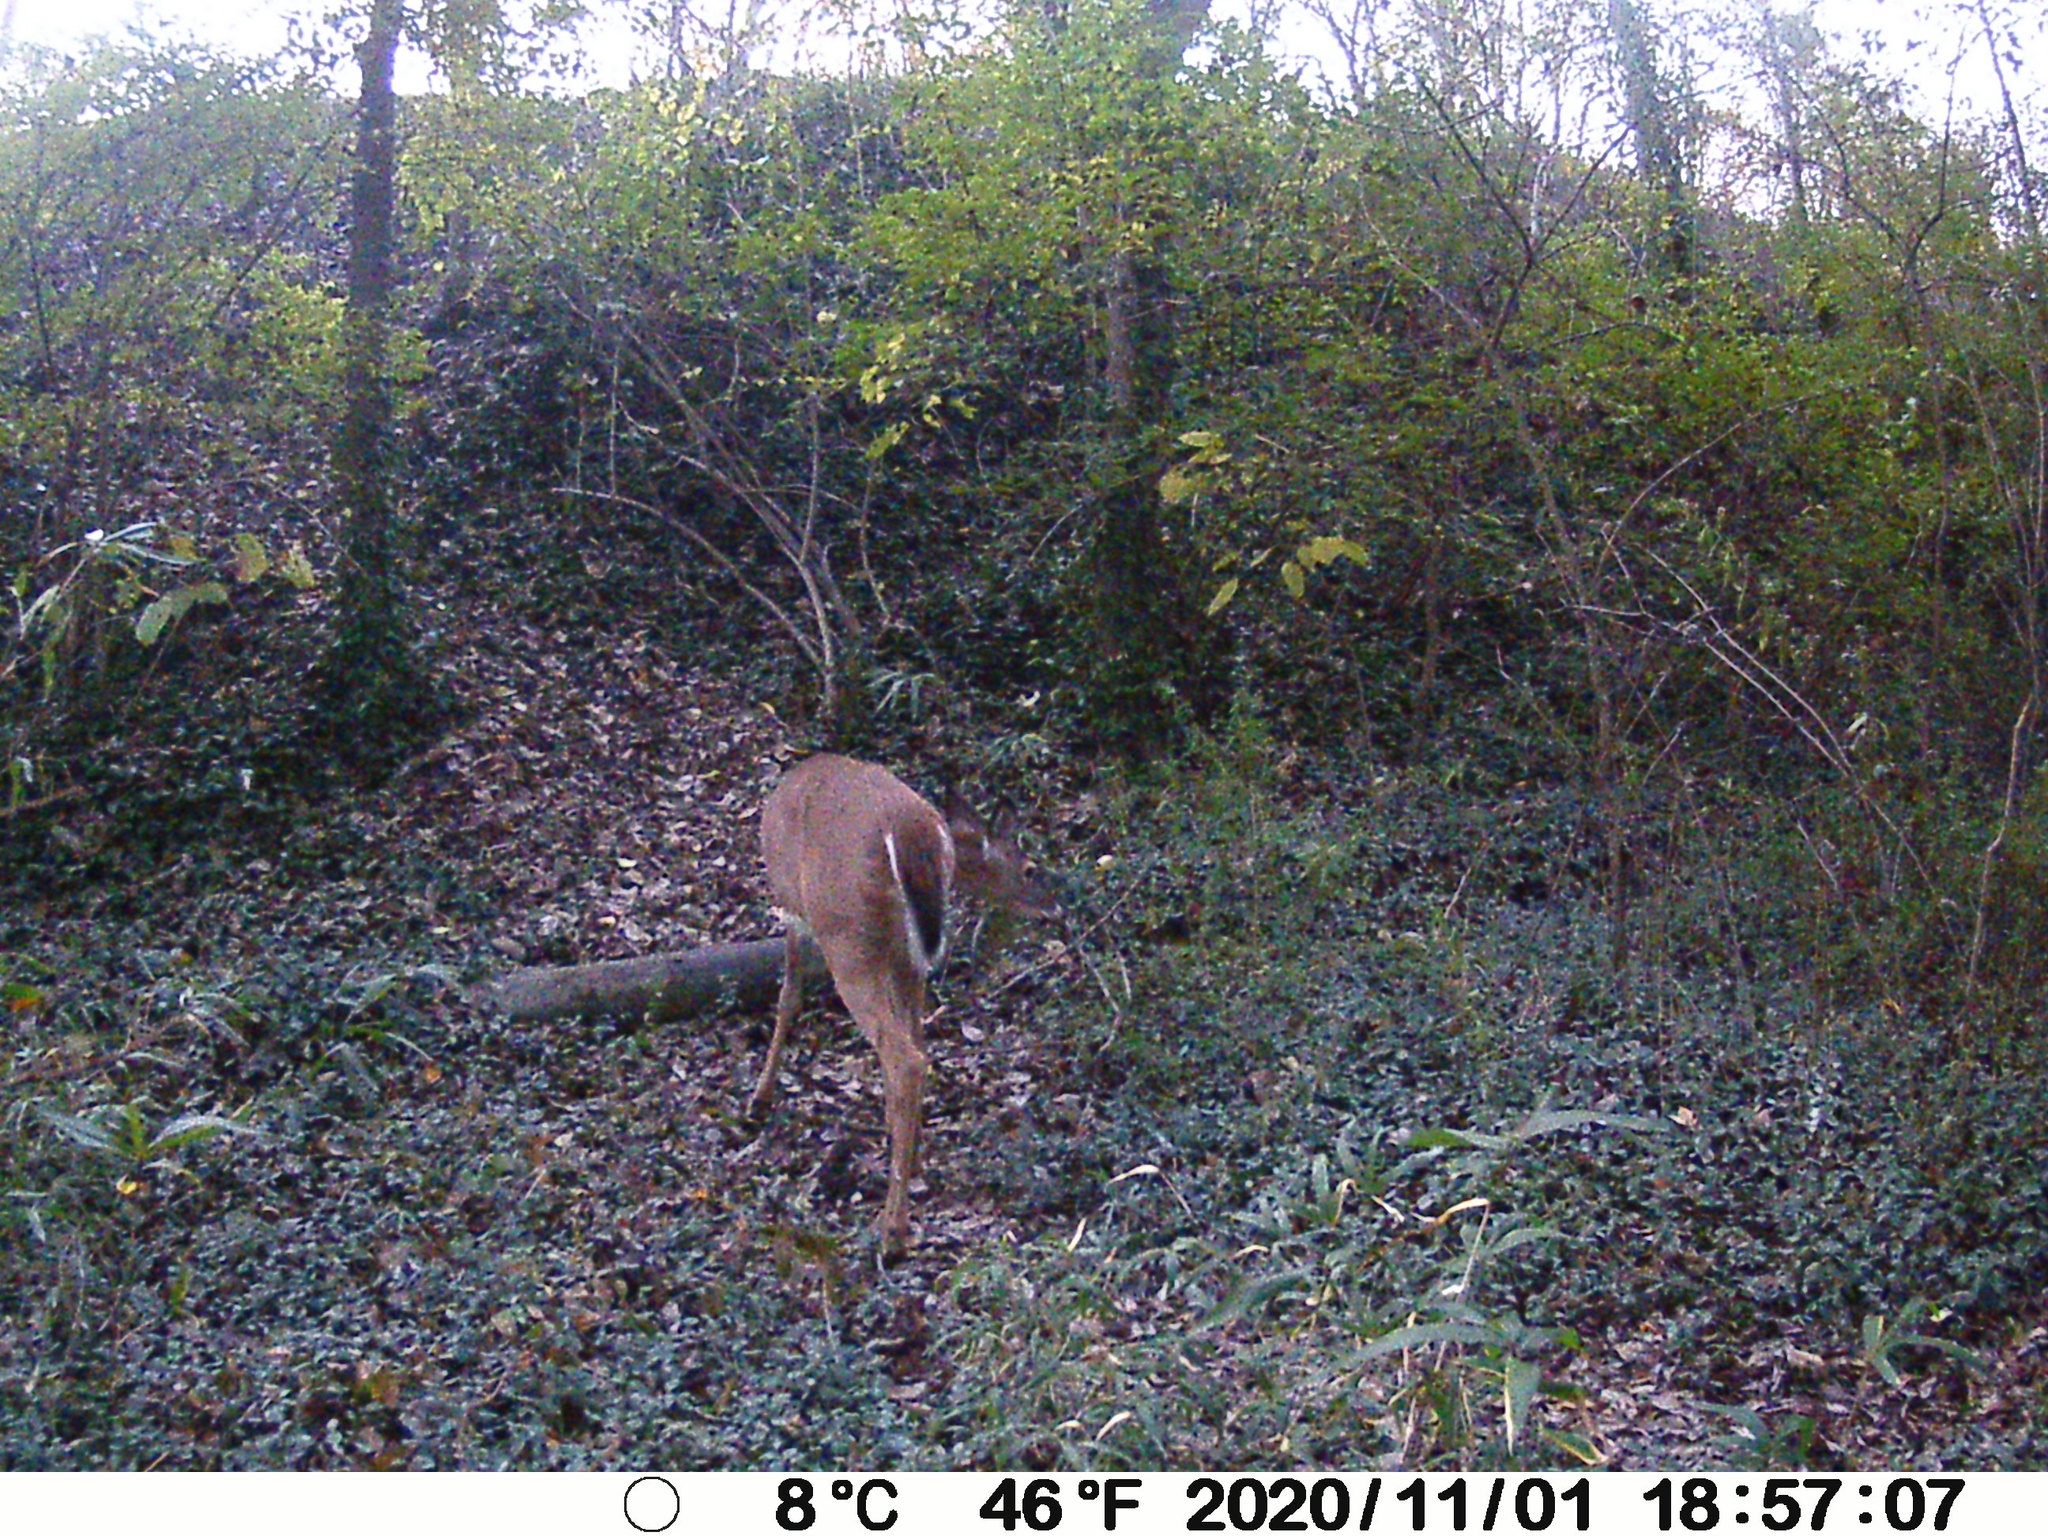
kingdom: Animalia
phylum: Chordata
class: Mammalia
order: Artiodactyla
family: Cervidae
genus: Odocoileus
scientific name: Odocoileus virginianus
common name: White-tailed deer
